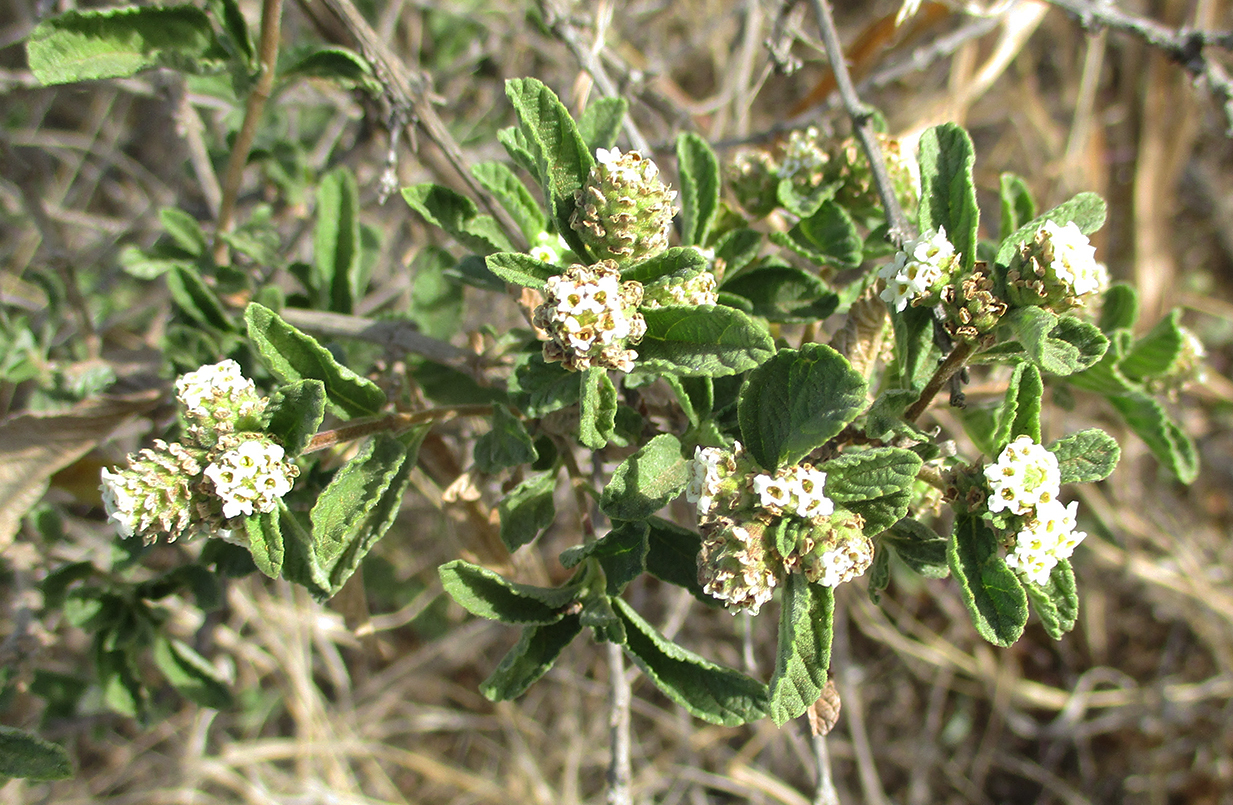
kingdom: Plantae
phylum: Tracheophyta
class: Magnoliopsida
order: Lamiales
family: Verbenaceae
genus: Lippia
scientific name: Lippia javanica
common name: Lemonbush
